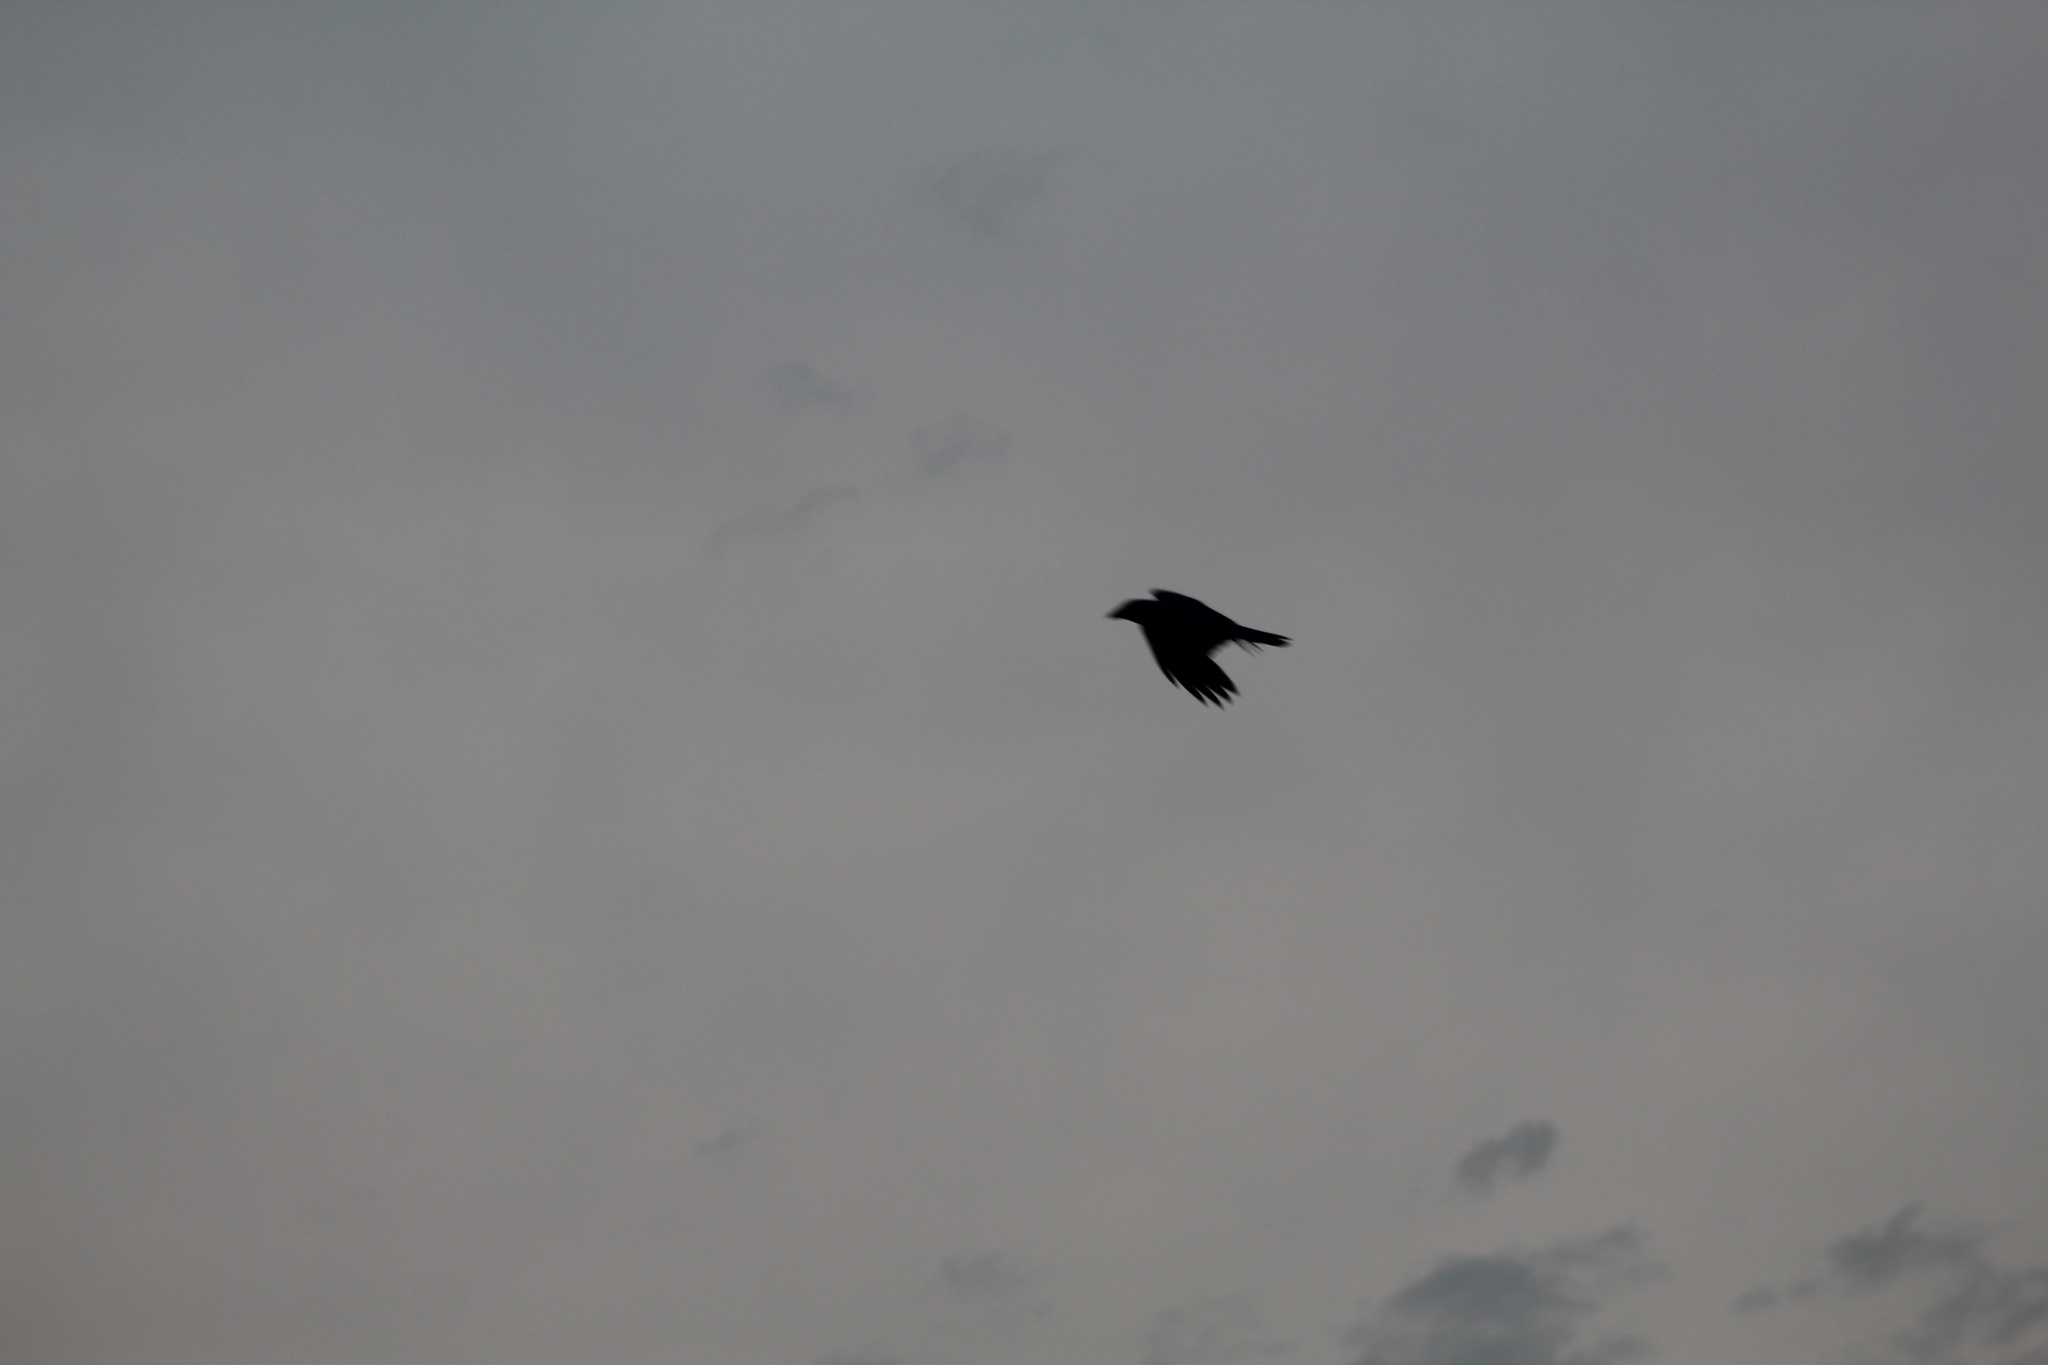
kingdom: Animalia
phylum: Chordata
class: Aves
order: Passeriformes
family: Corvidae
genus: Corvus
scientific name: Corvus brachyrhynchos
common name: American crow
